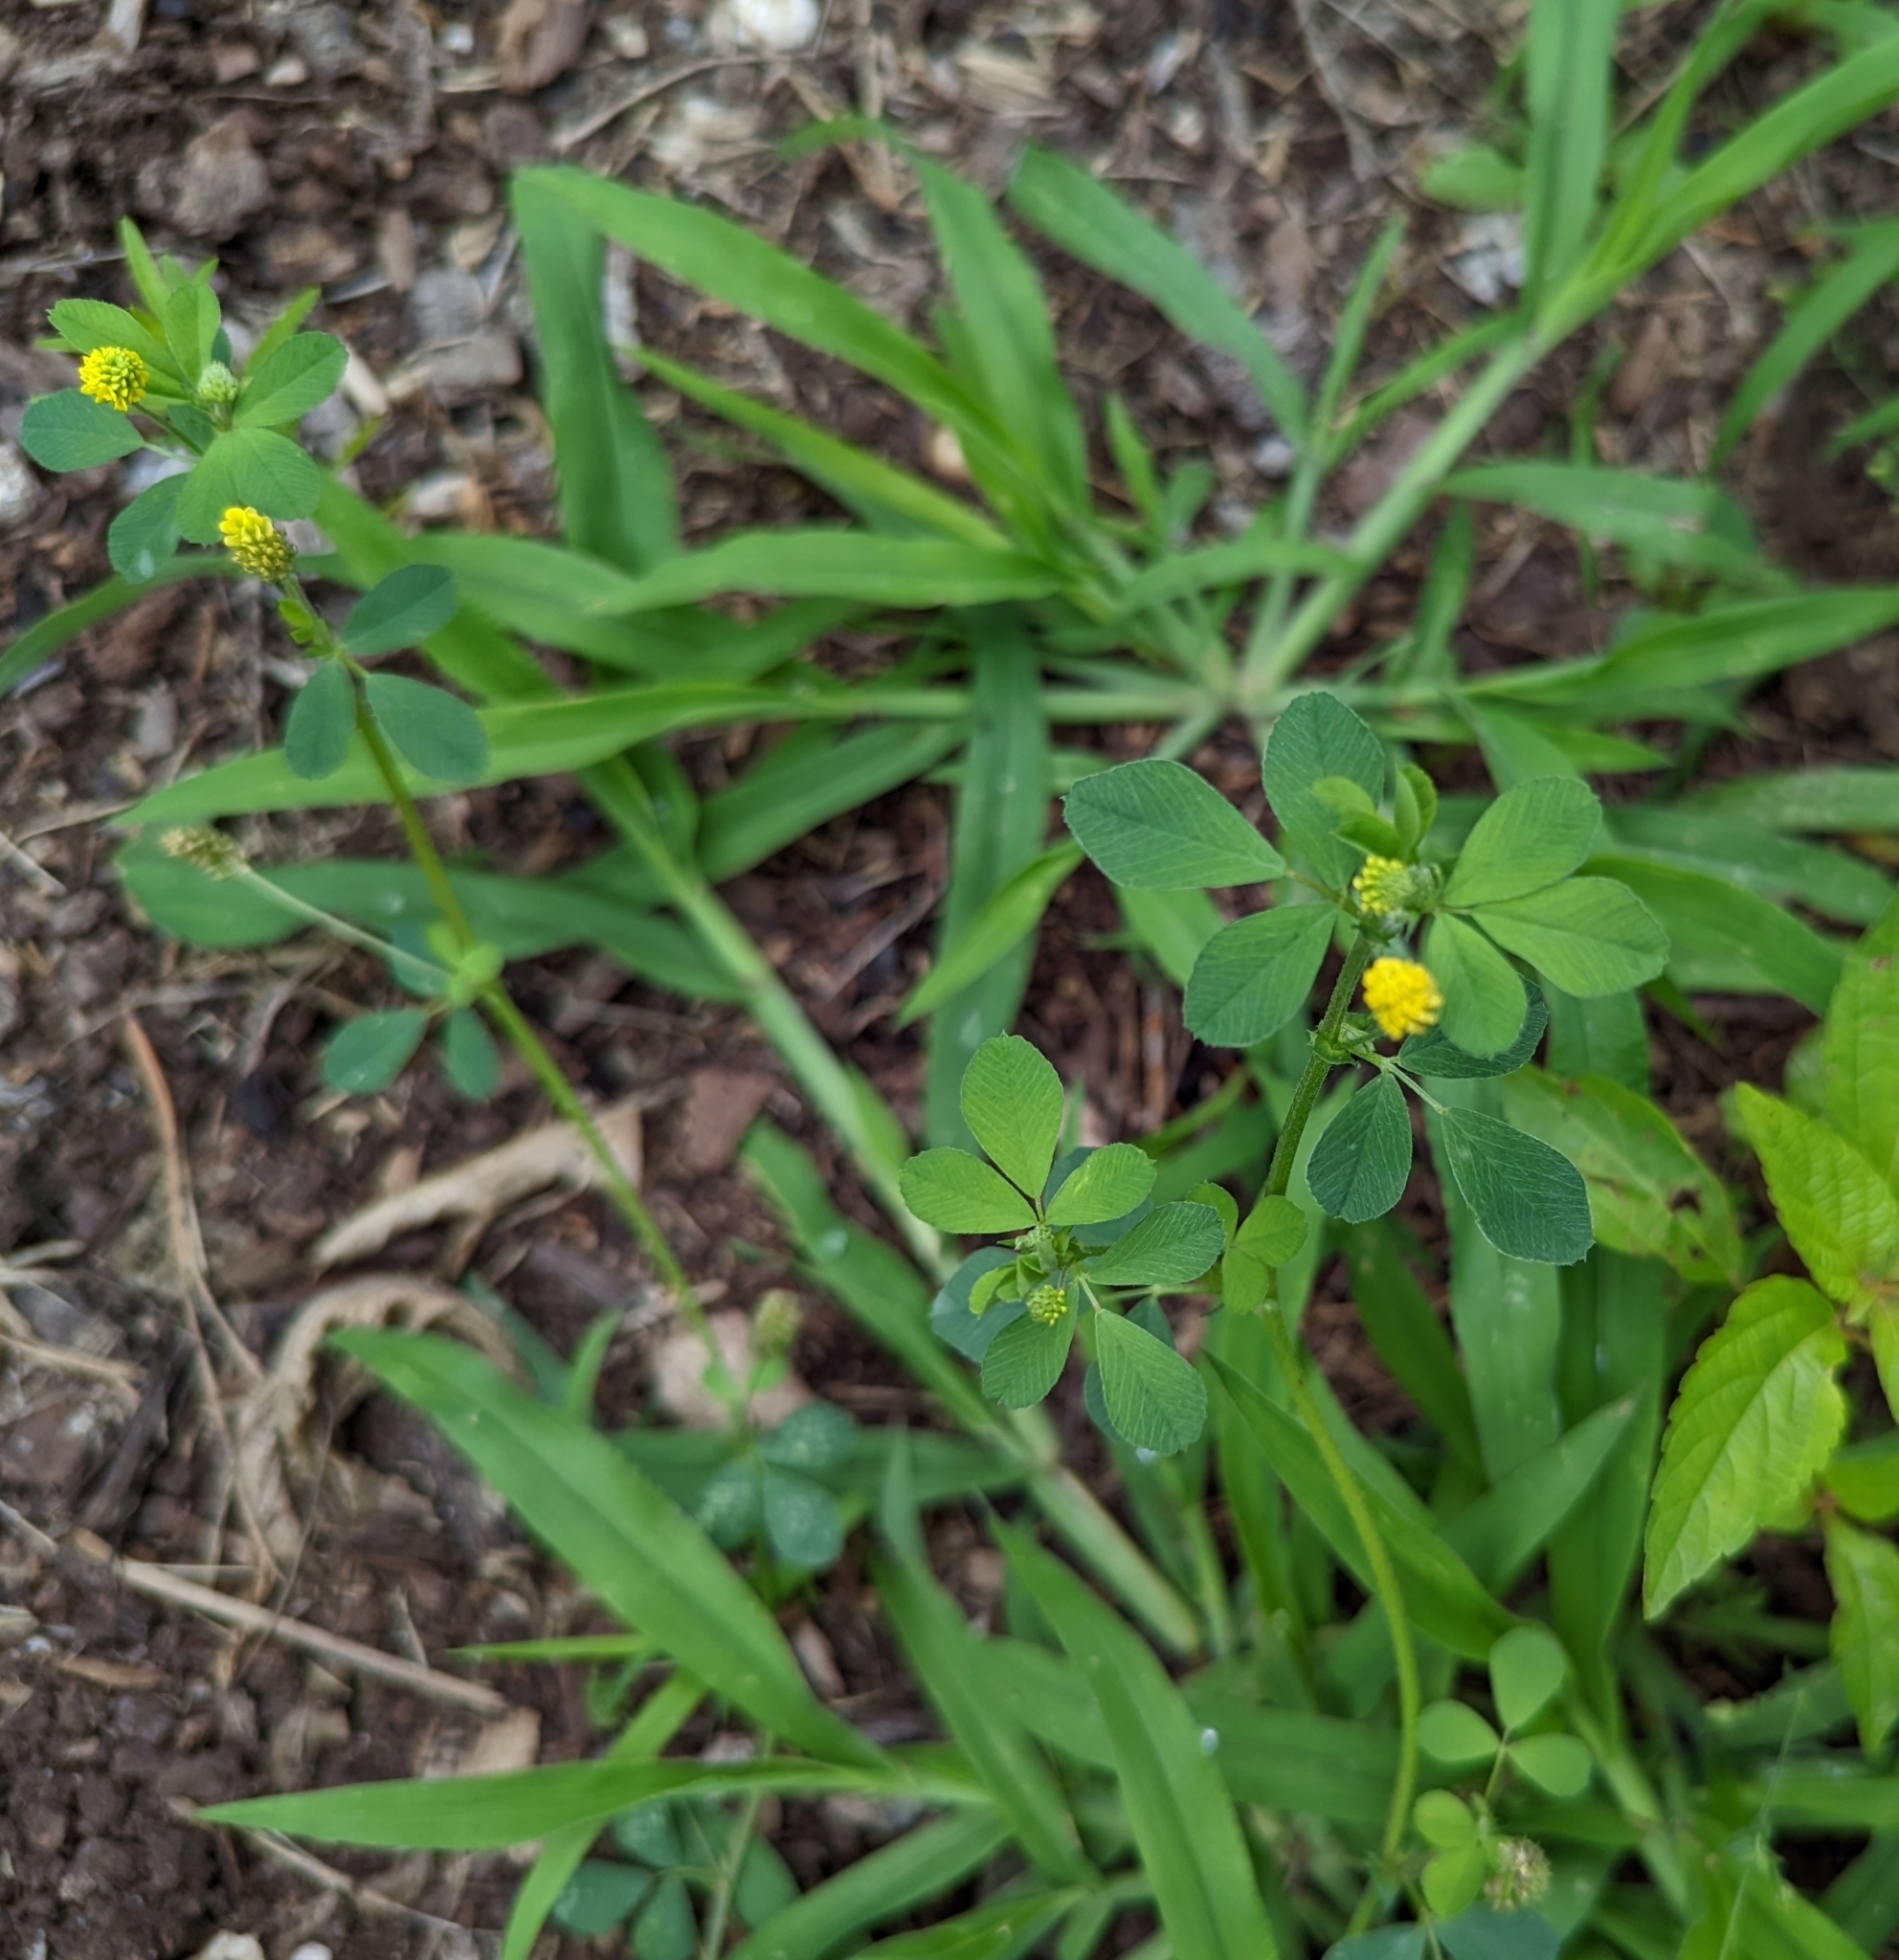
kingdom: Plantae
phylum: Tracheophyta
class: Magnoliopsida
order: Fabales
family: Fabaceae
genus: Medicago
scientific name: Medicago lupulina
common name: Black medick
